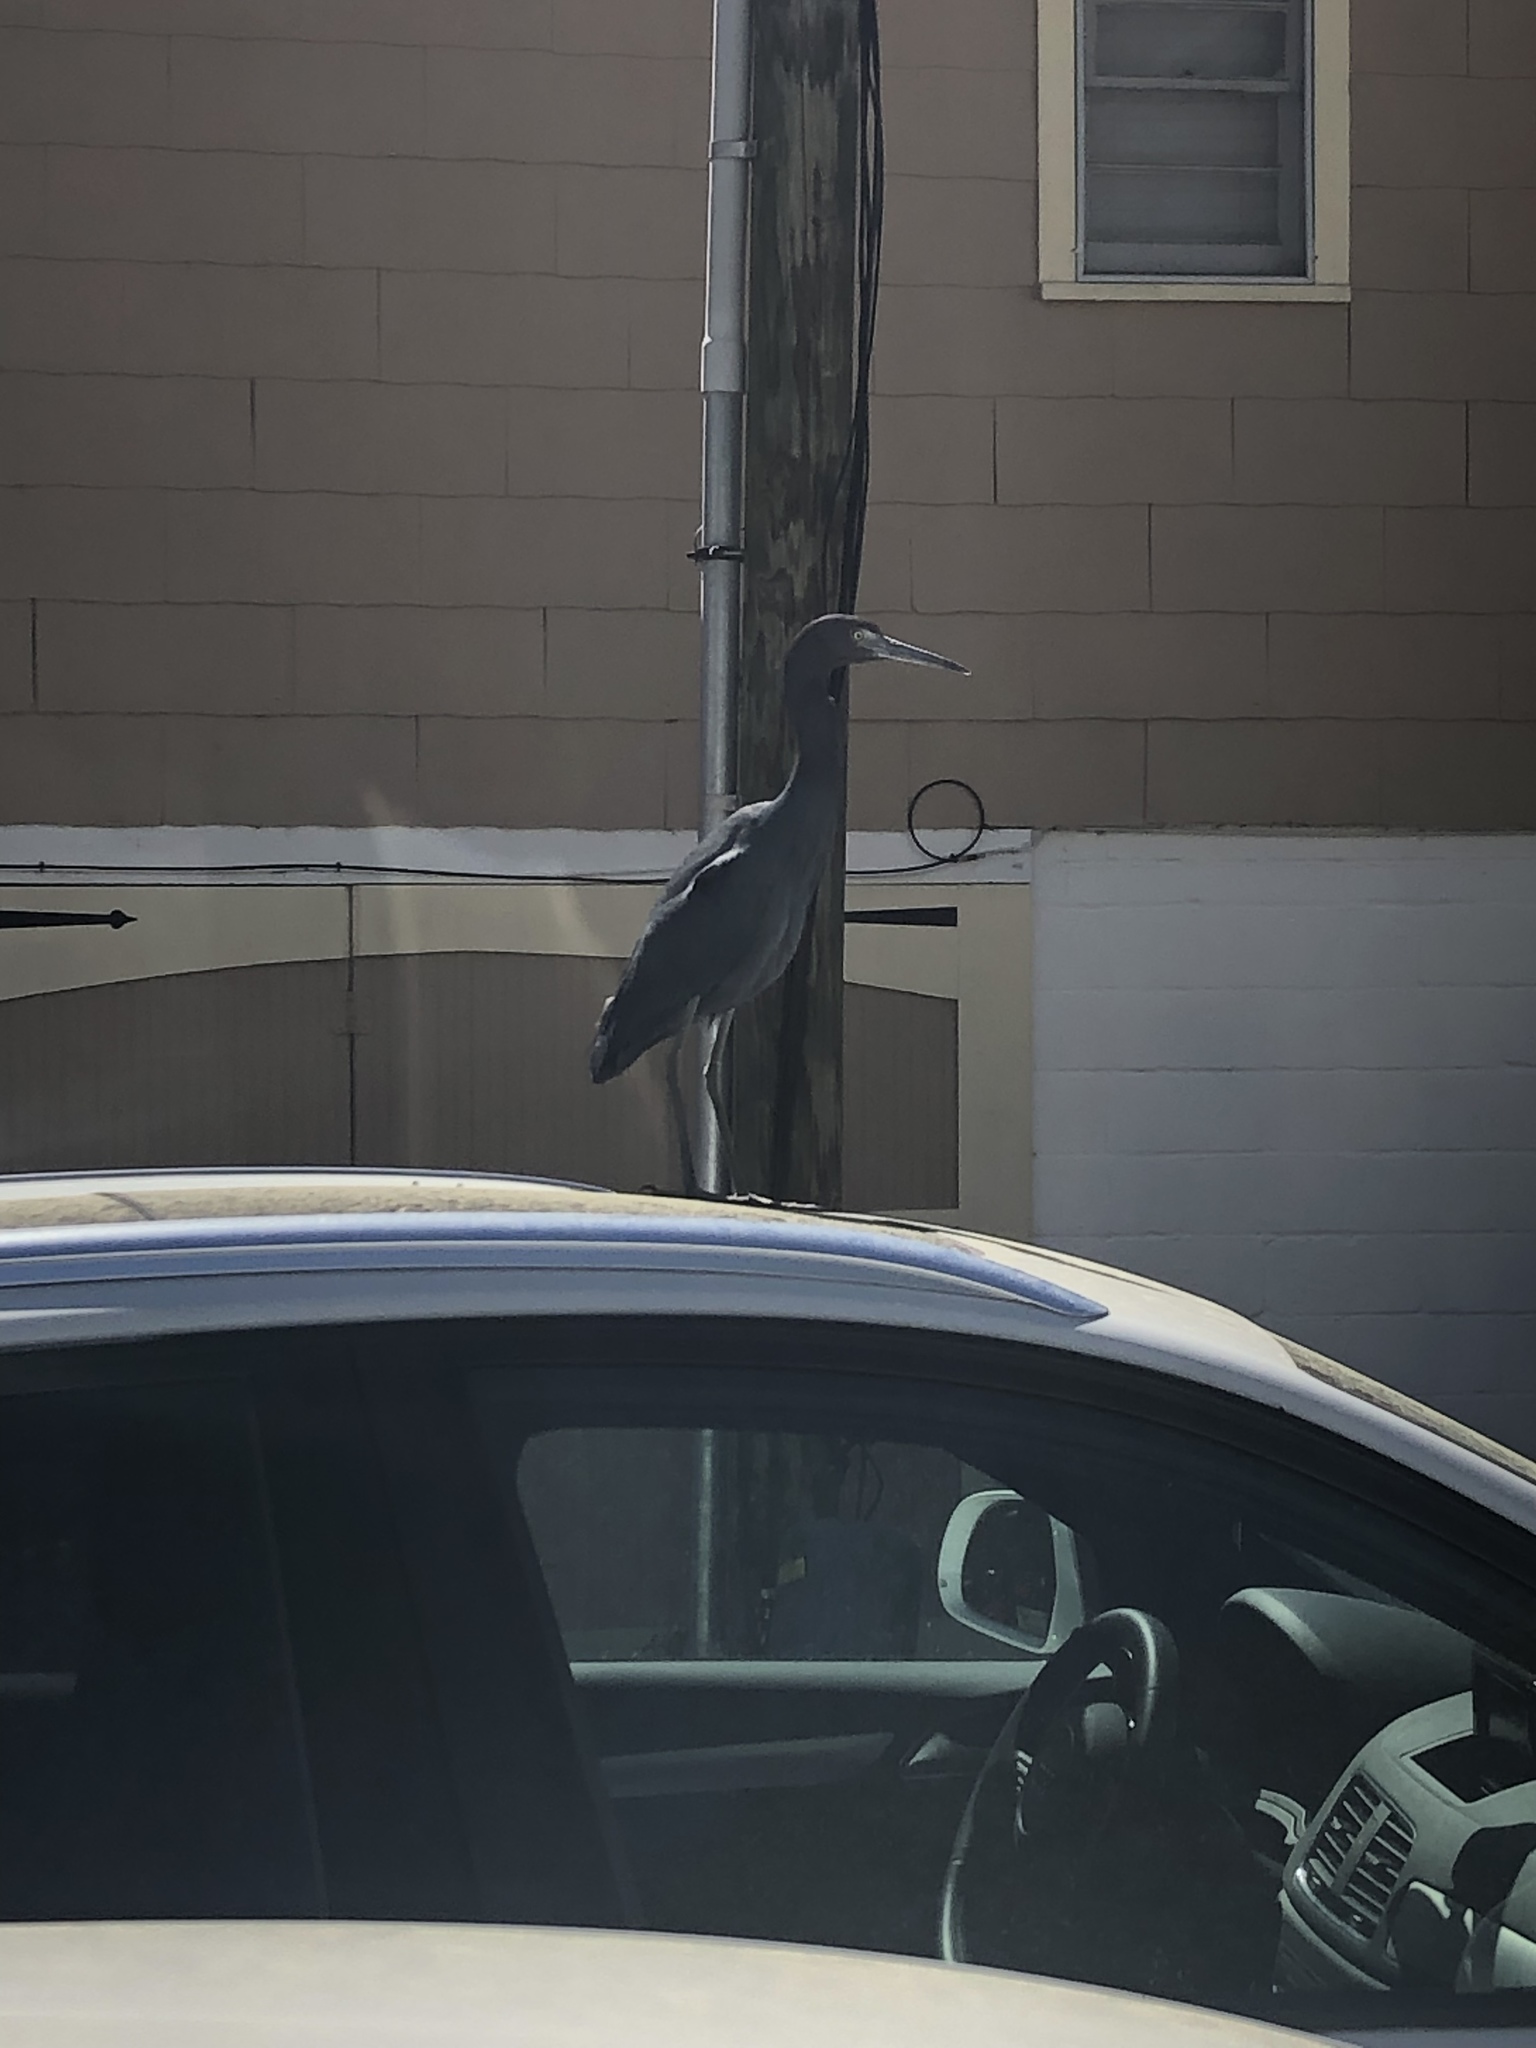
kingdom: Animalia
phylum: Chordata
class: Aves
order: Pelecaniformes
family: Ardeidae
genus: Egretta
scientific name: Egretta caerulea
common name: Little blue heron
